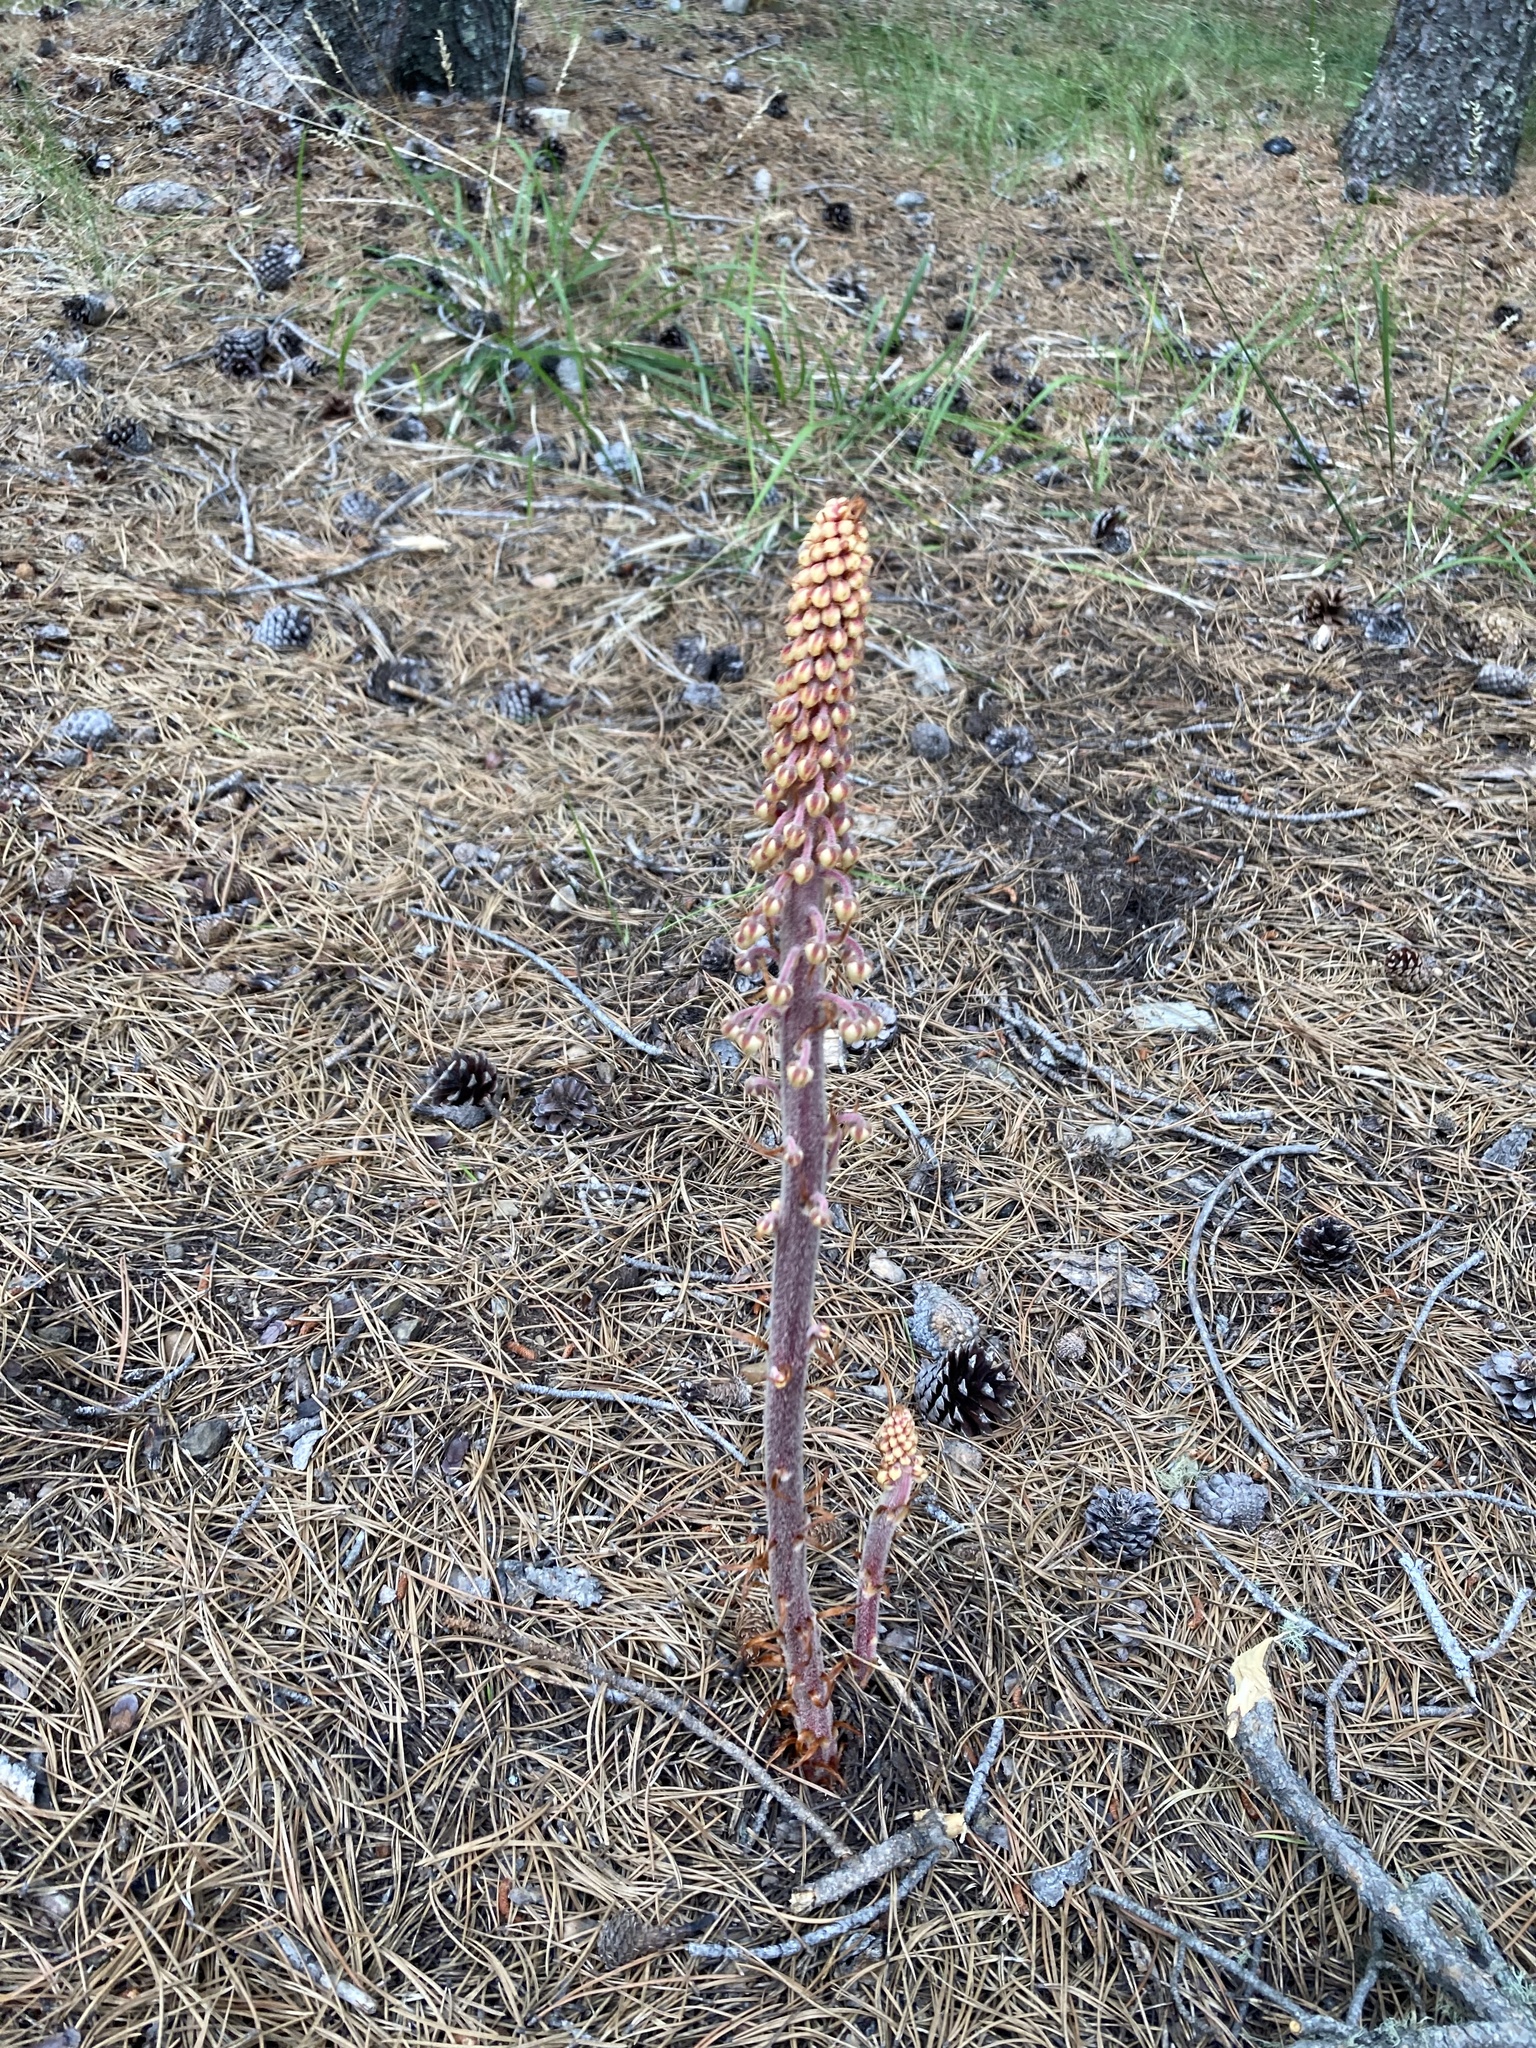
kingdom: Plantae
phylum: Tracheophyta
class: Magnoliopsida
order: Ericales
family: Ericaceae
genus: Pterospora
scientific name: Pterospora andromedea
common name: Giant bird's-nest
